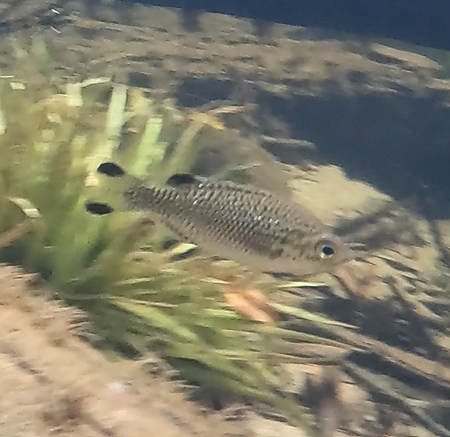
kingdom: Animalia
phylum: Chordata
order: Perciformes
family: Kuhliidae
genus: Kuhlia
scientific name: Kuhlia rupestris
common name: Rock flagtail
